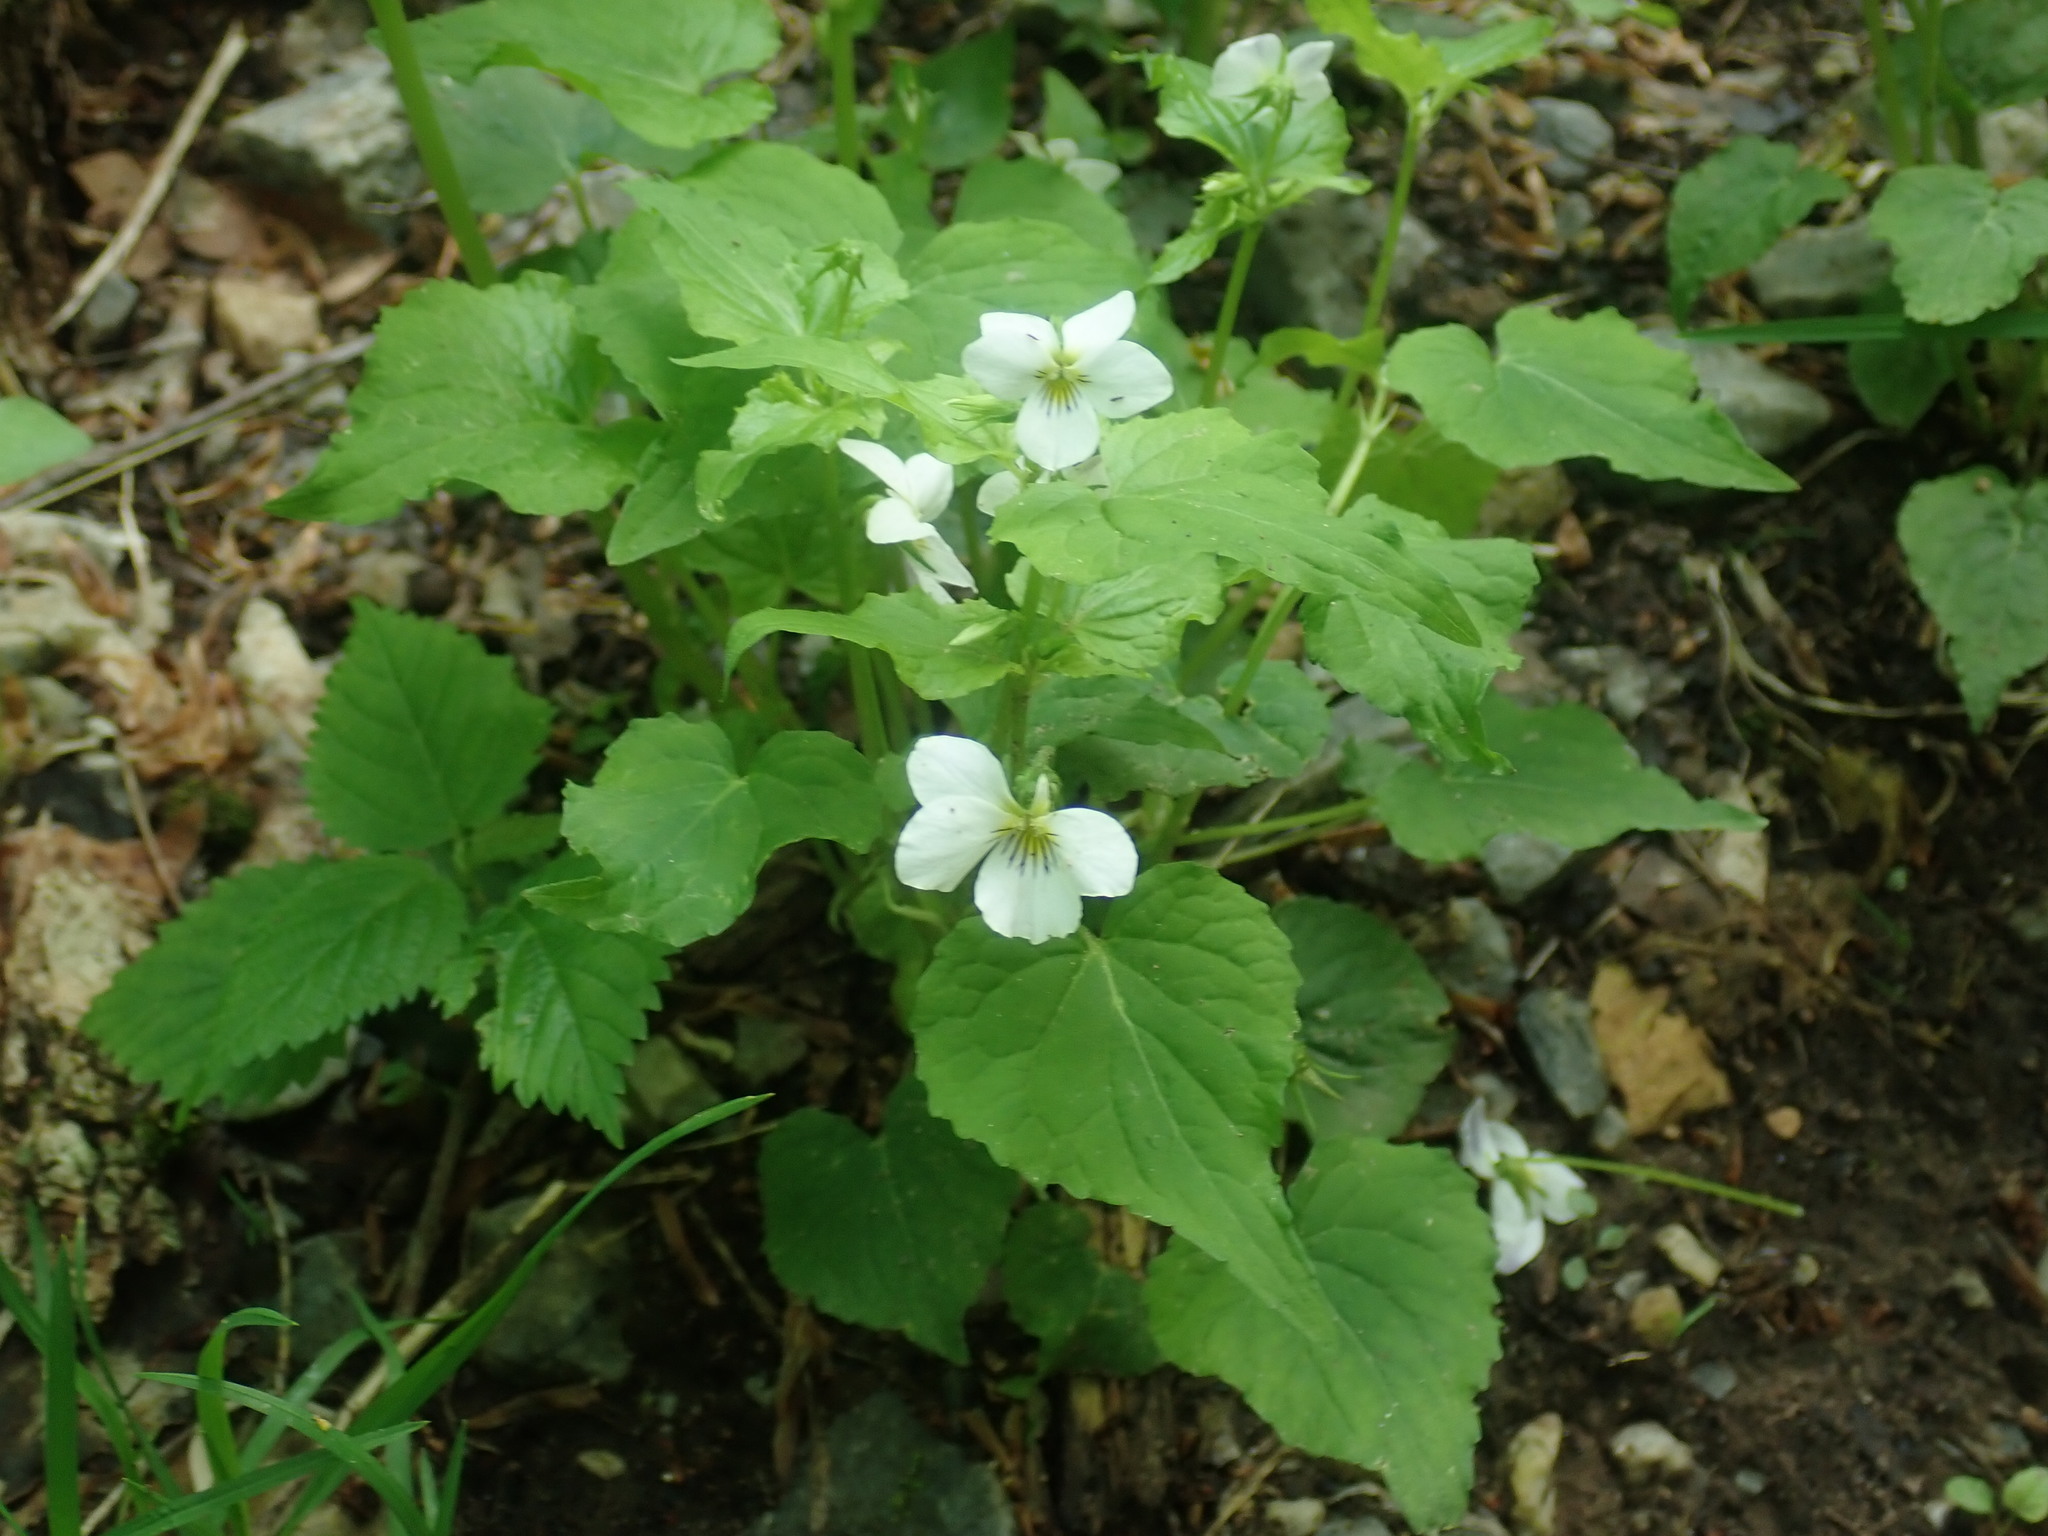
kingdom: Plantae
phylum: Tracheophyta
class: Magnoliopsida
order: Malpighiales
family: Violaceae
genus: Viola
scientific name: Viola canadensis
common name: Canada violet
